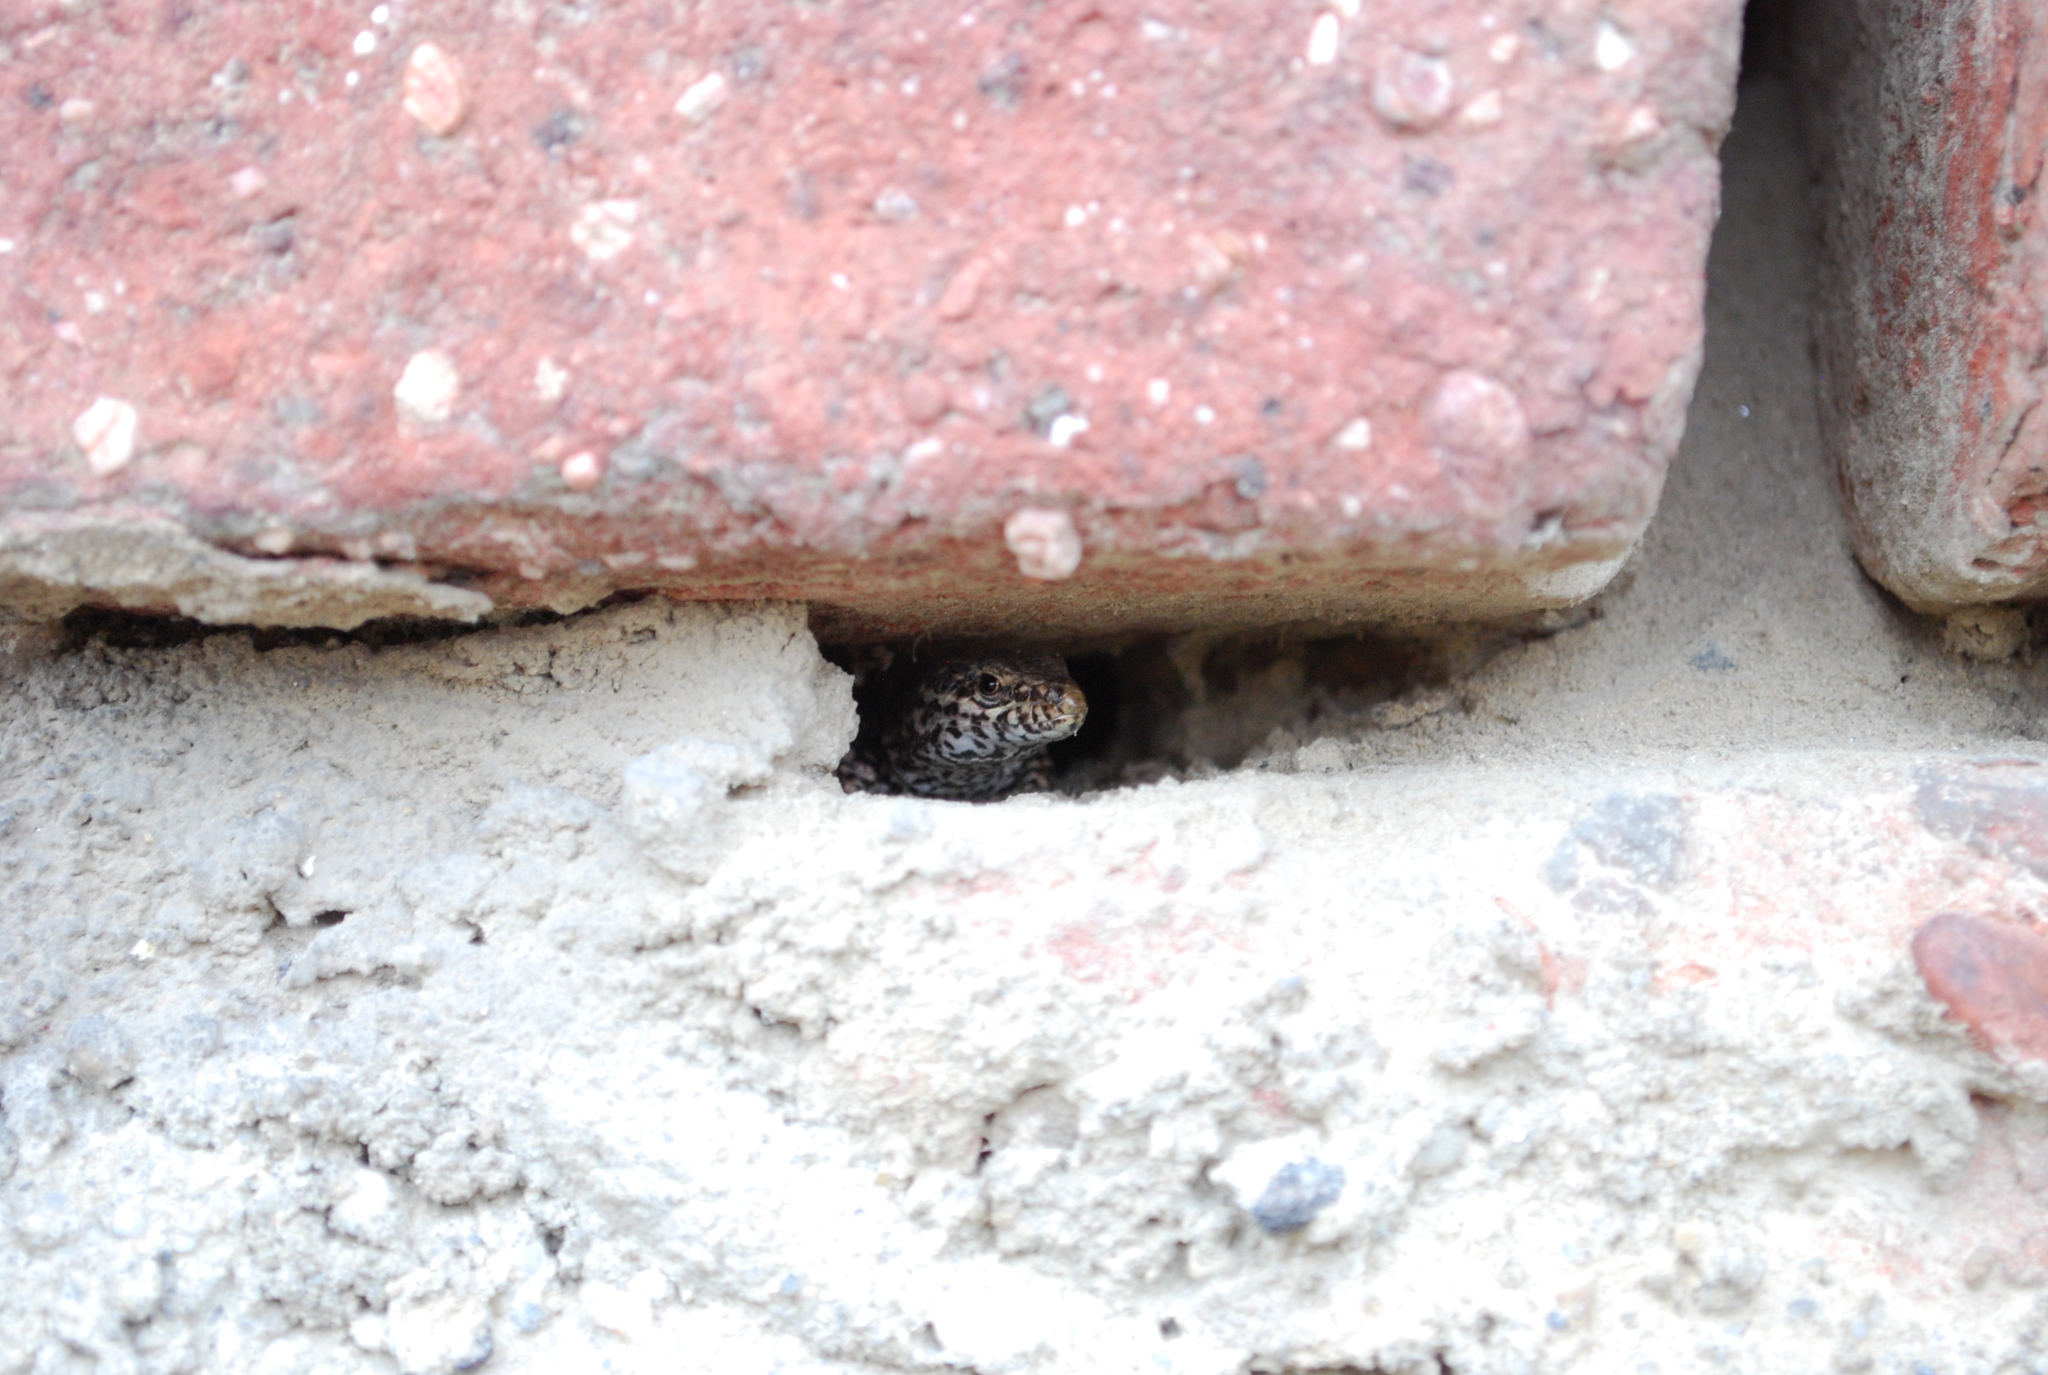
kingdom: Animalia
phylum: Chordata
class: Squamata
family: Lacertidae
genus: Podarcis
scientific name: Podarcis muralis
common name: Common wall lizard
